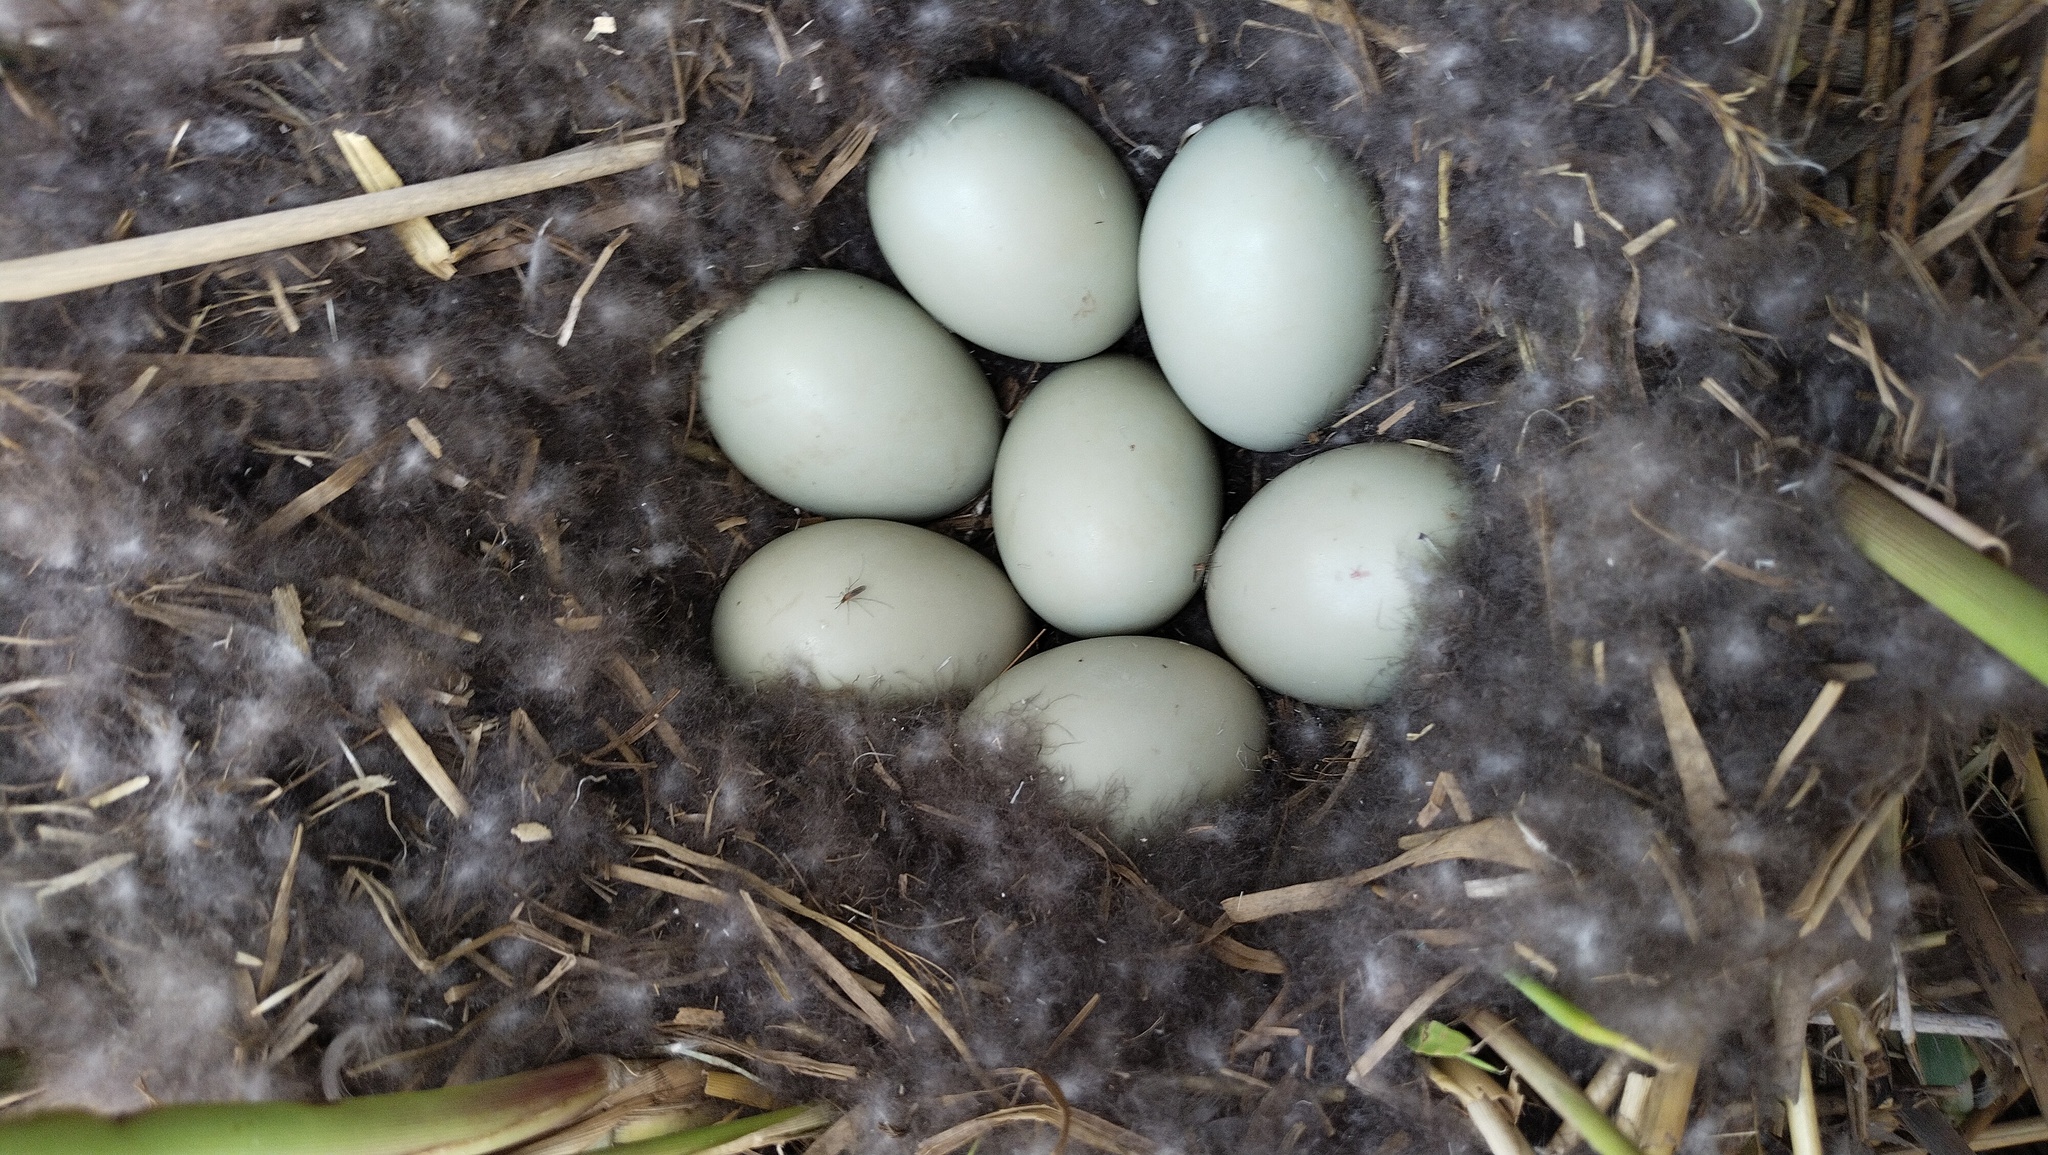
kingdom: Animalia
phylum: Chordata
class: Aves
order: Anseriformes
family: Anatidae
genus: Aythya
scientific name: Aythya ferina
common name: Common pochard
